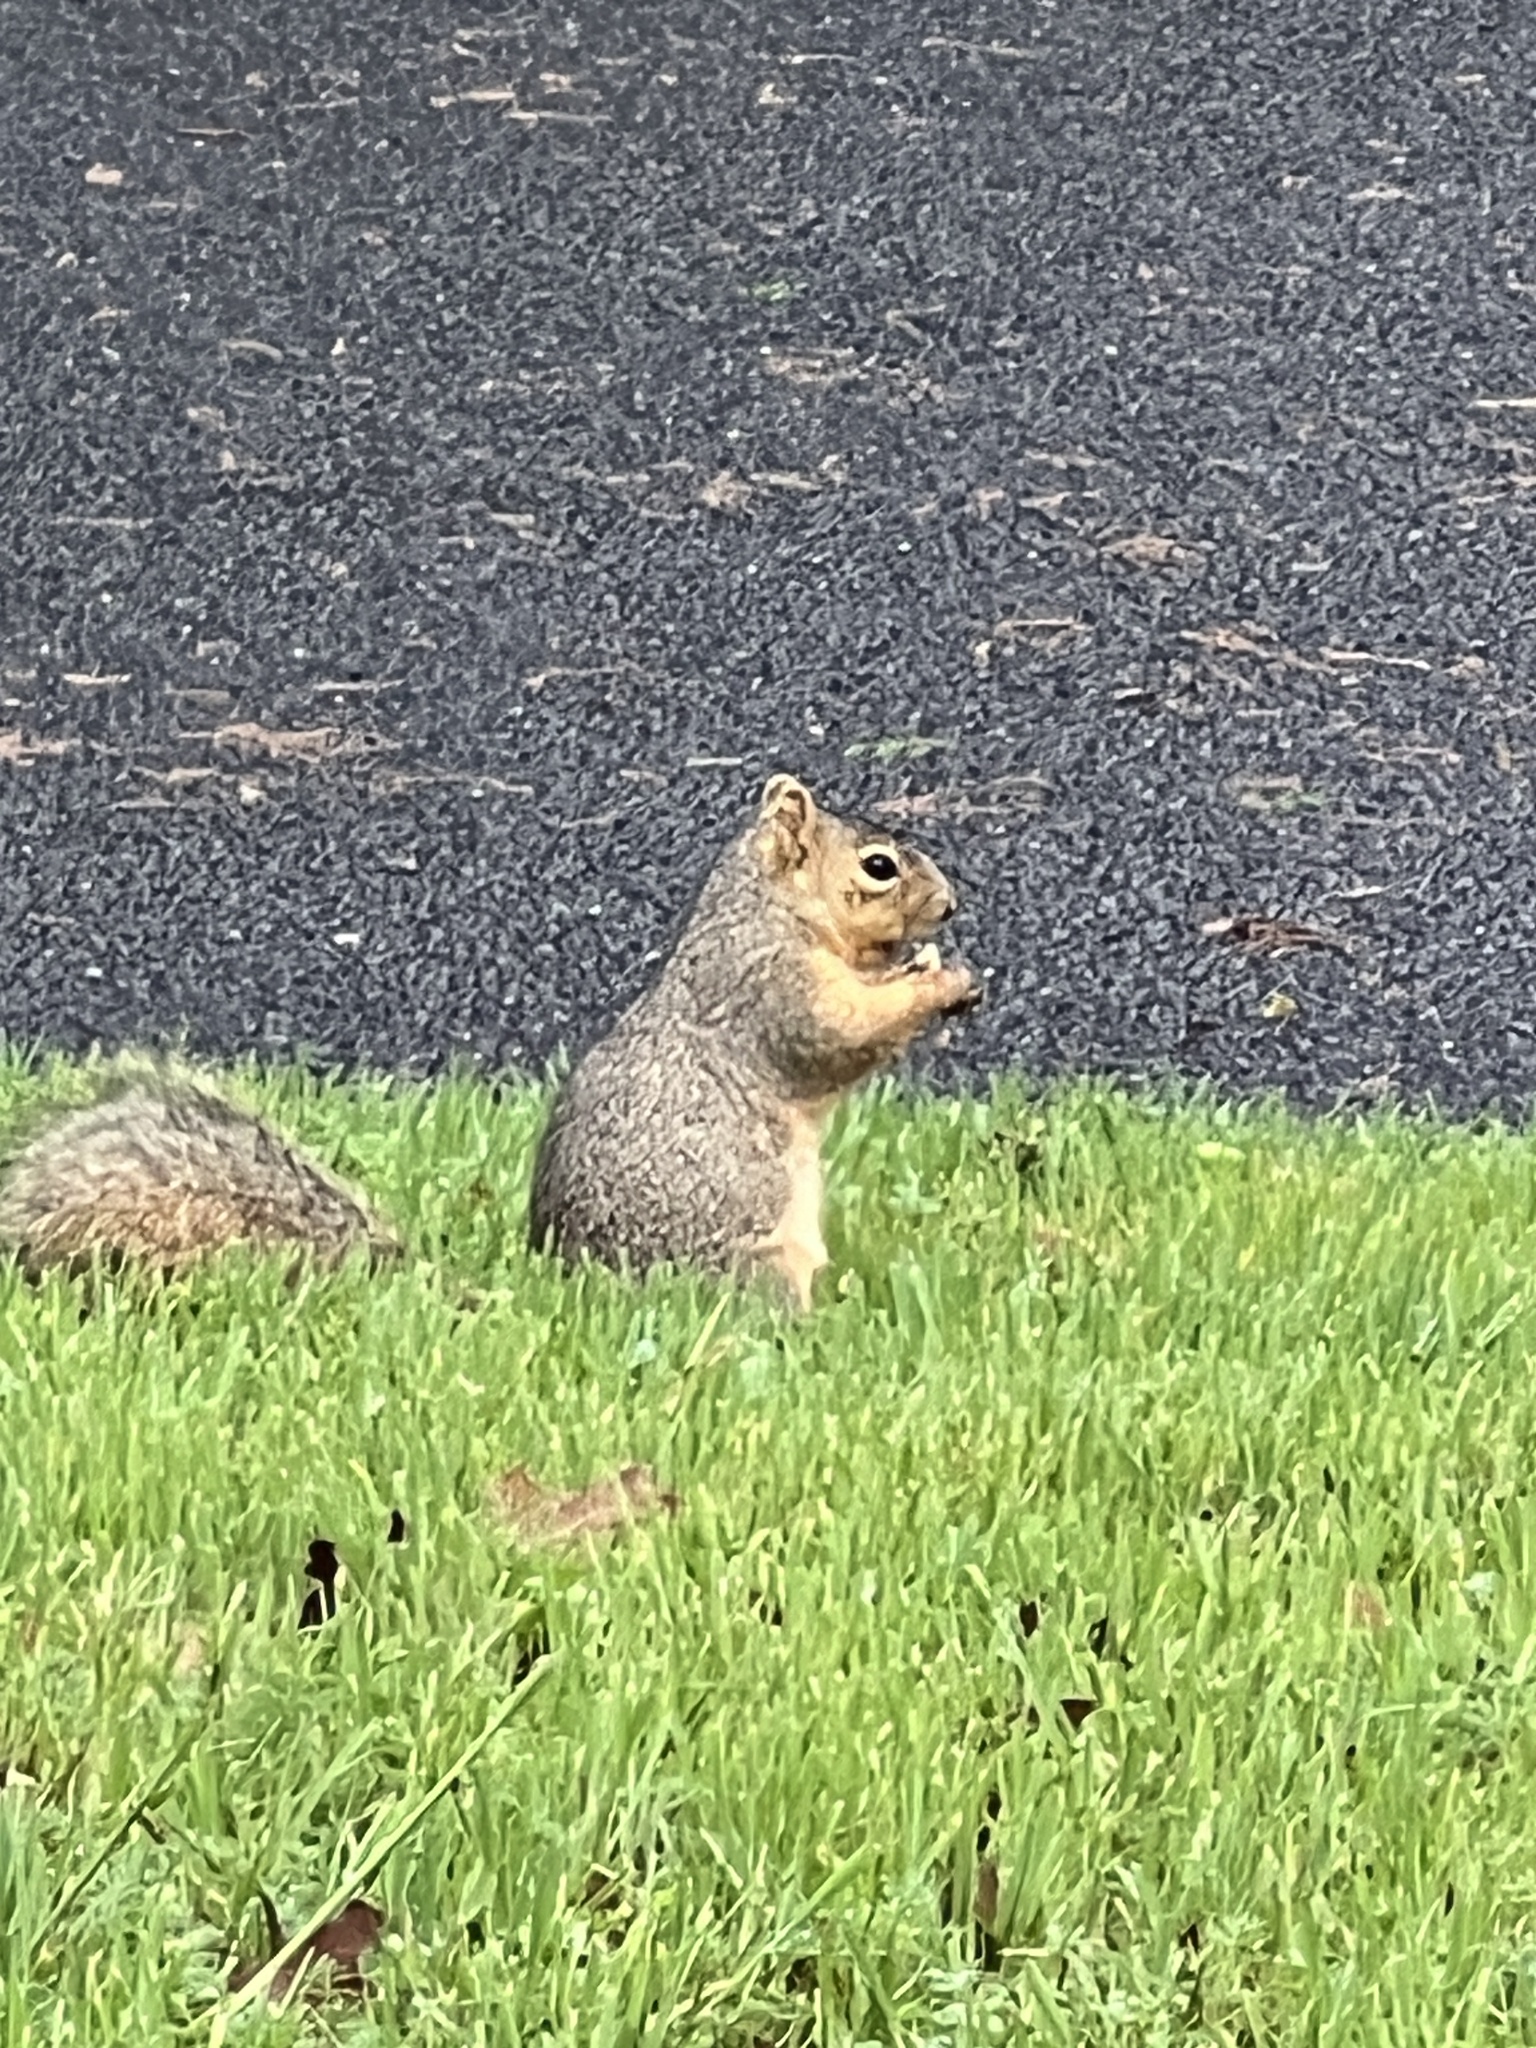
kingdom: Animalia
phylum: Chordata
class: Mammalia
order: Rodentia
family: Sciuridae
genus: Sciurus
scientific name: Sciurus niger
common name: Fox squirrel
